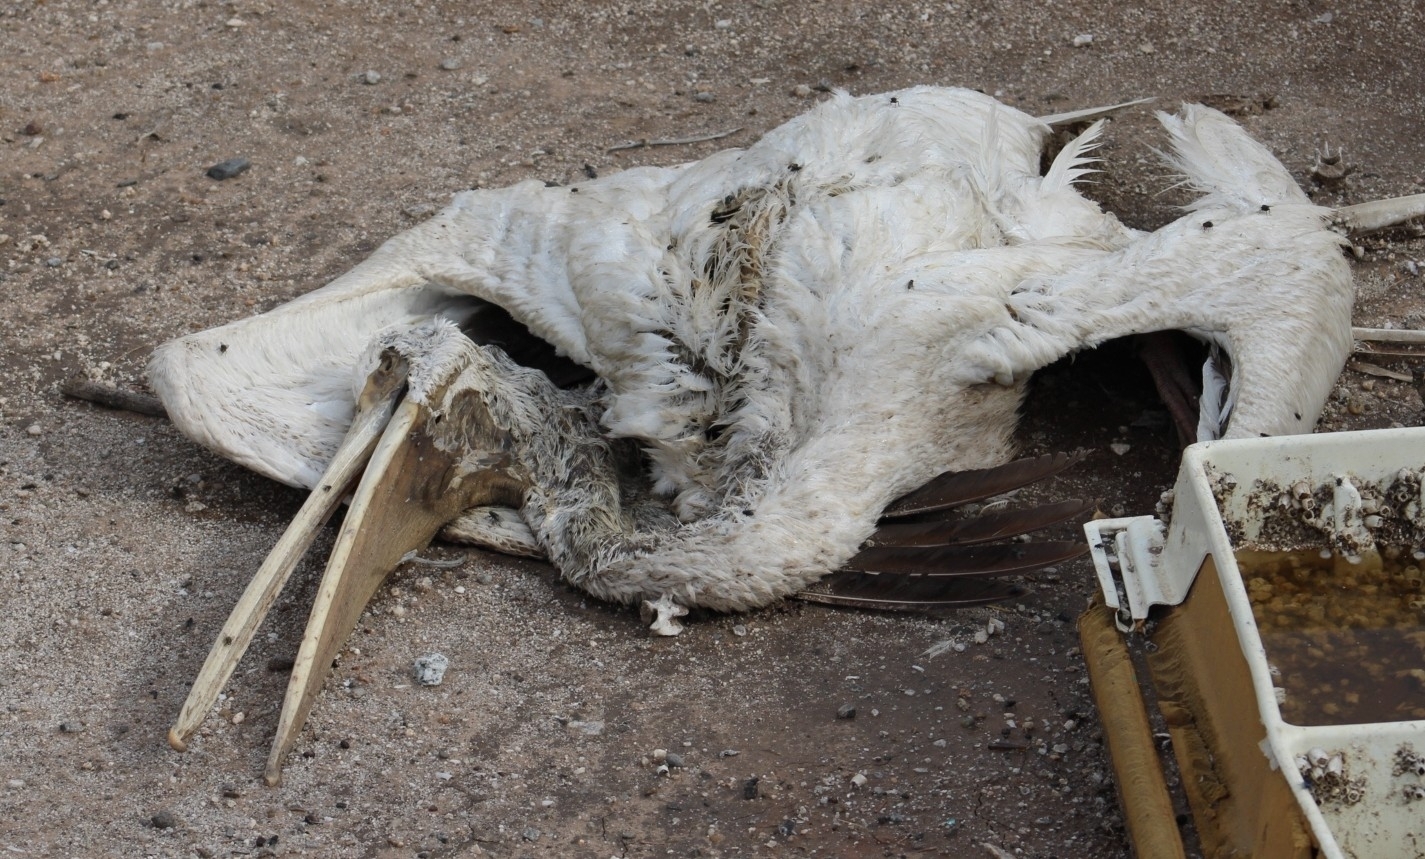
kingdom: Animalia
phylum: Chordata
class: Aves
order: Pelecaniformes
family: Pelecanidae
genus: Pelecanus
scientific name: Pelecanus erythrorhynchos
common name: American white pelican
